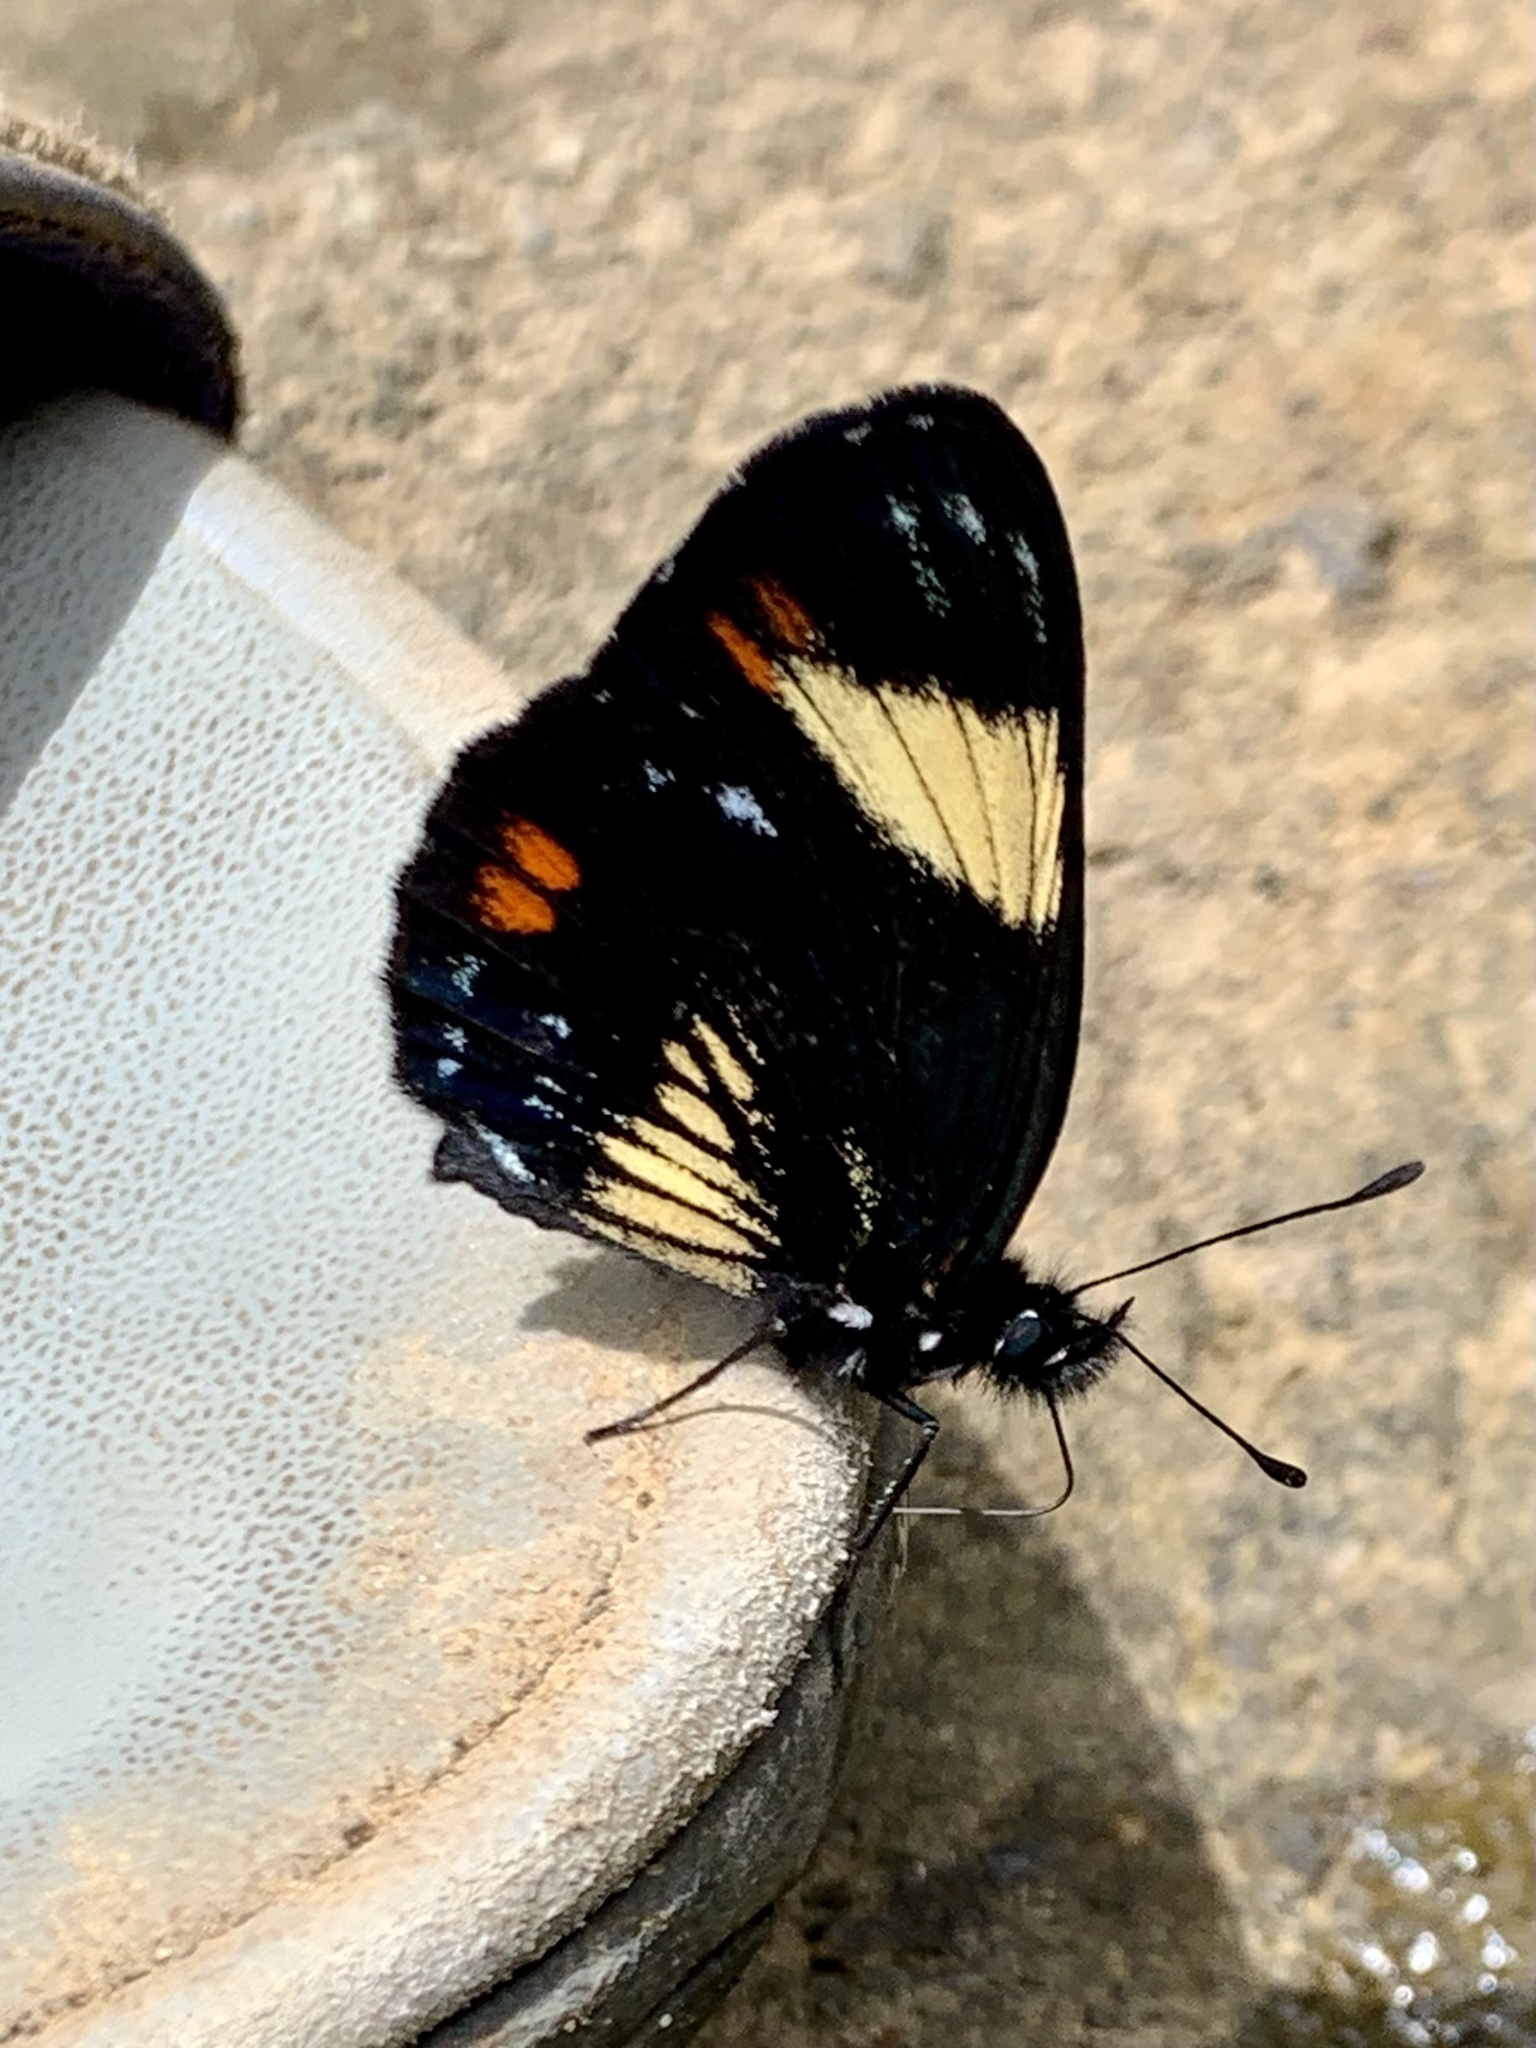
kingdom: Animalia
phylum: Arthropoda
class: Insecta
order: Lepidoptera
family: Nymphalidae
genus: Eresia
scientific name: Eresia levina
